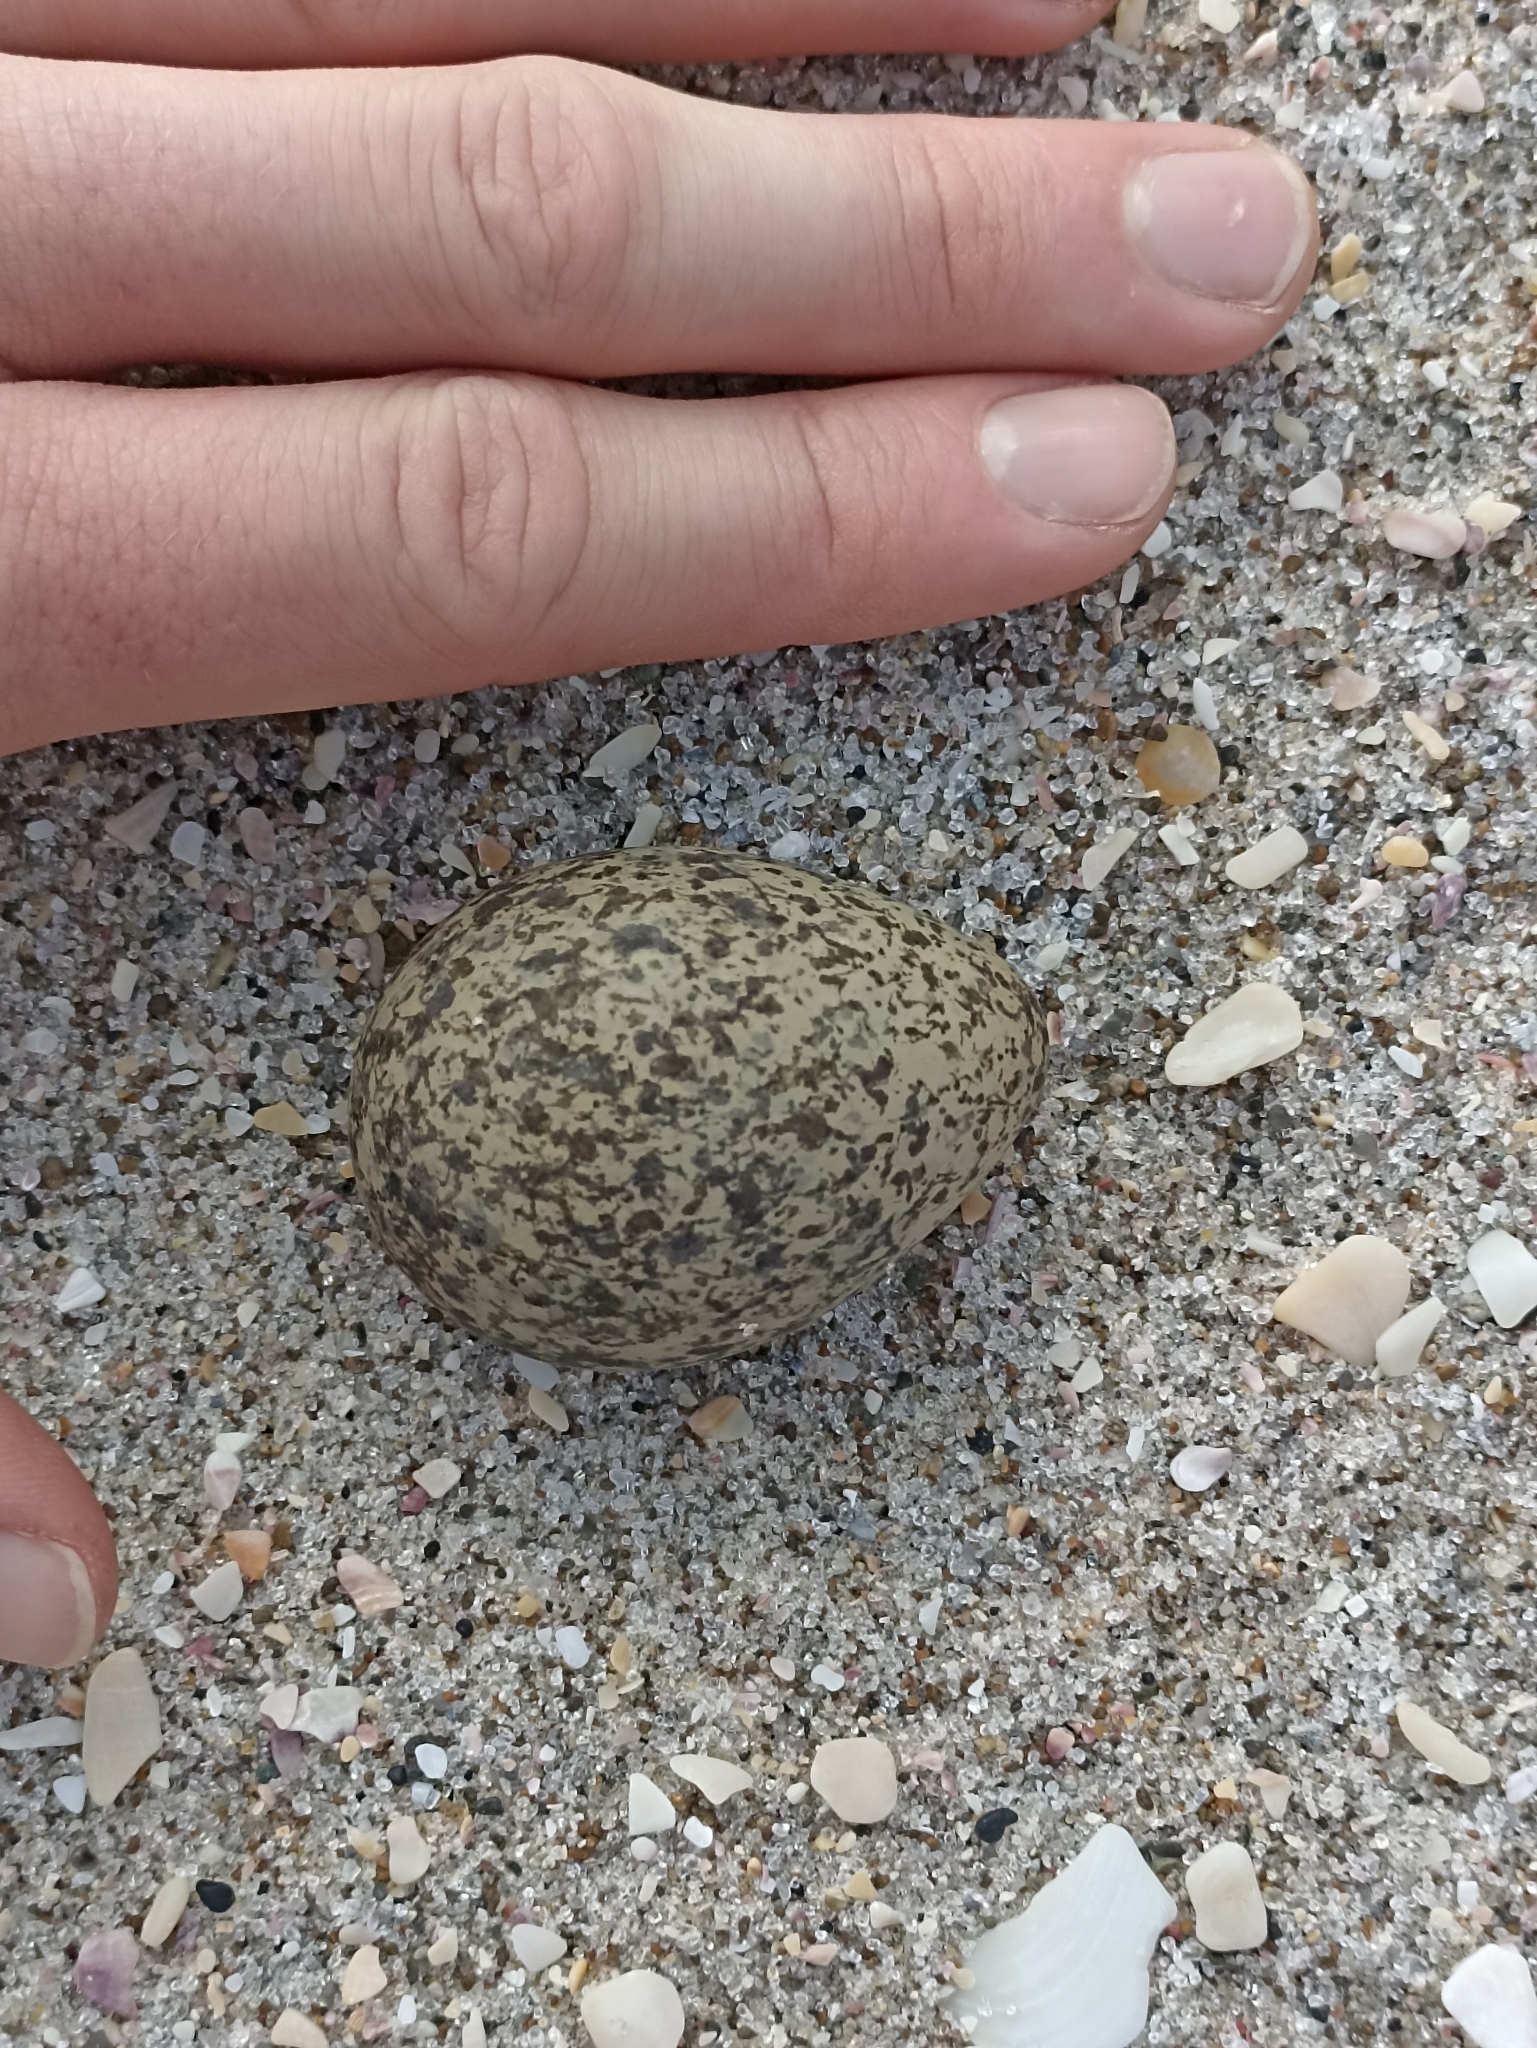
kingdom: Animalia
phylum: Chordata
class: Aves
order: Charadriiformes
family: Charadriidae
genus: Vanellus
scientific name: Vanellus miles
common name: Masked lapwing
